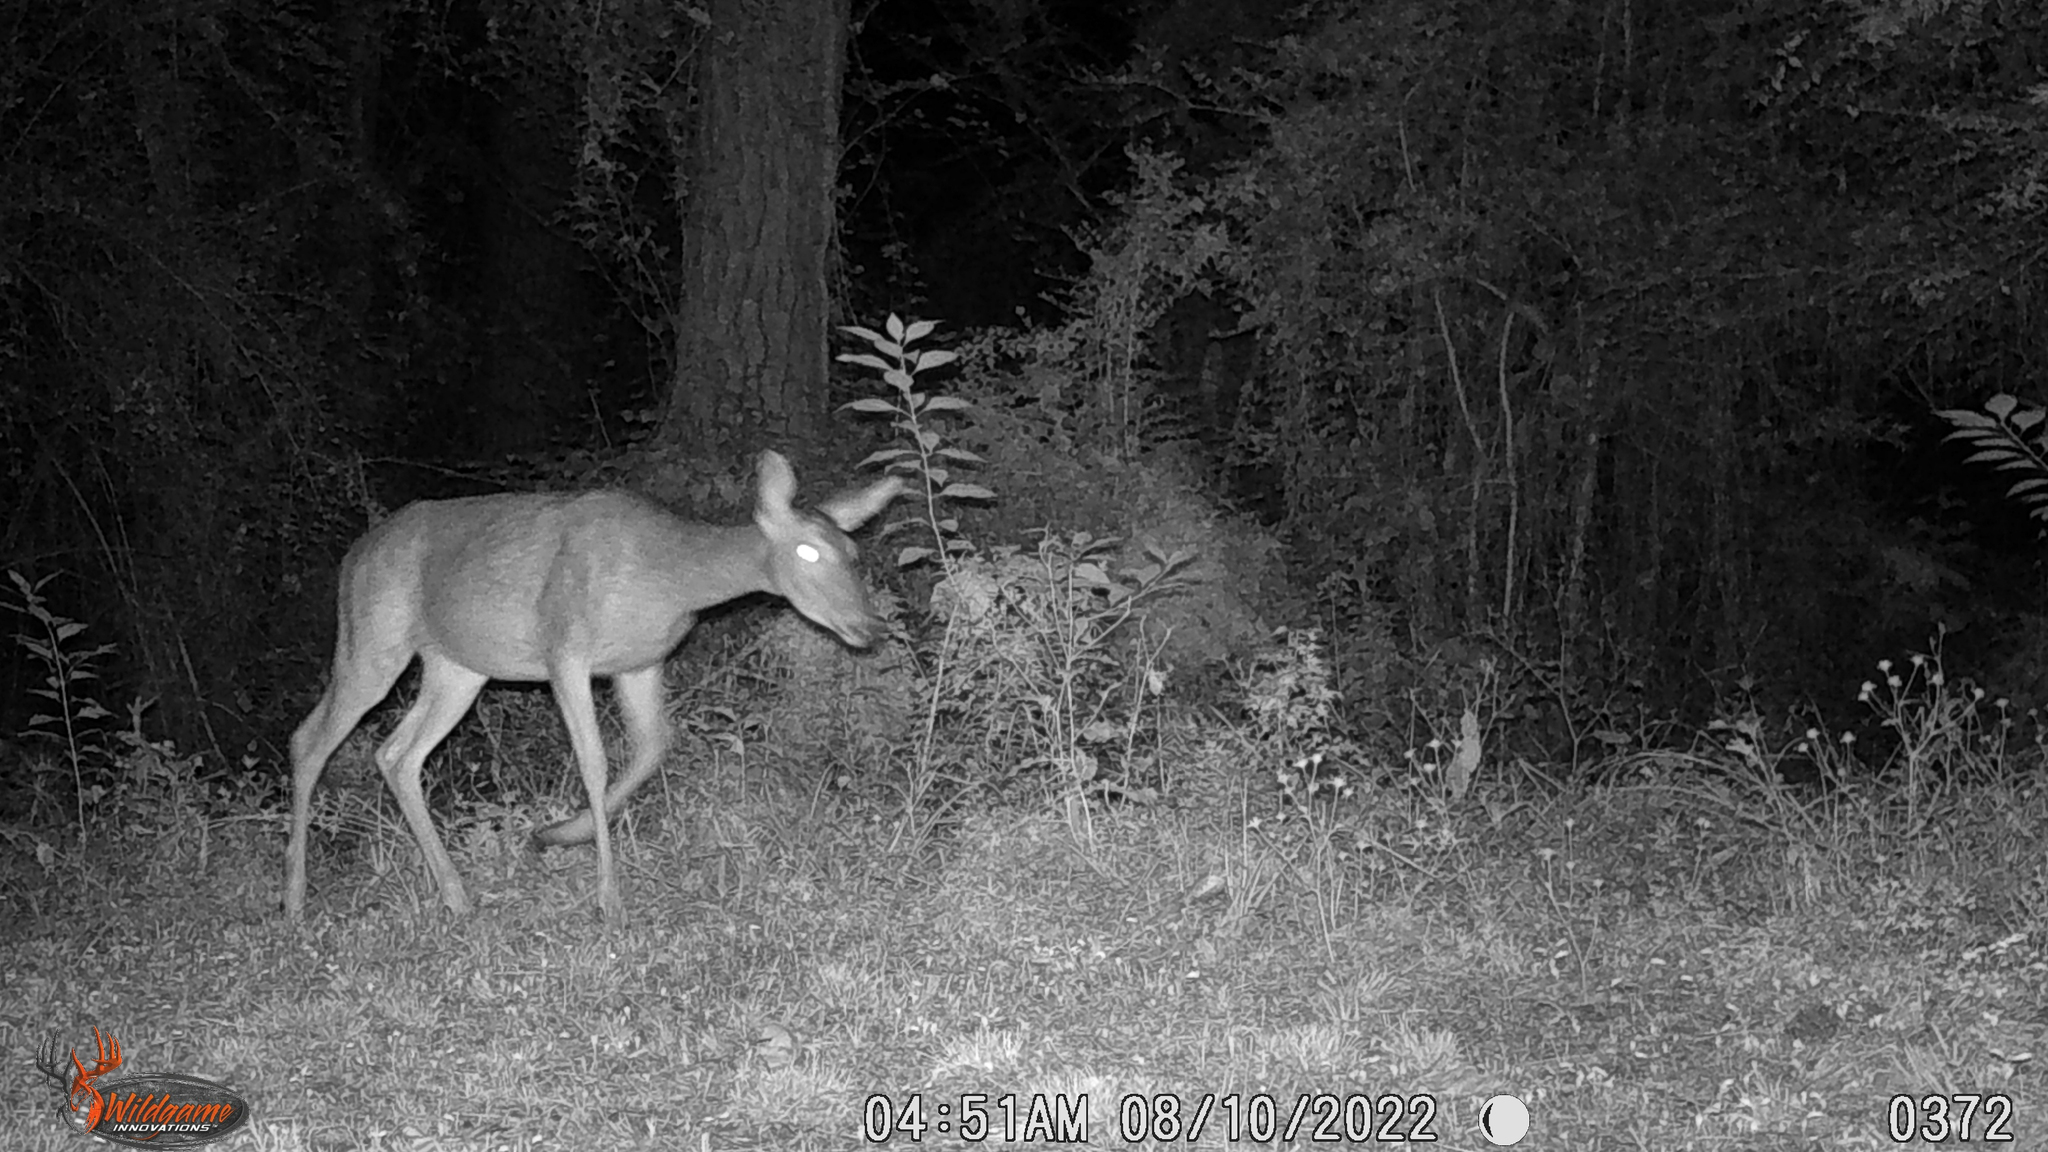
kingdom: Animalia
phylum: Chordata
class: Mammalia
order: Artiodactyla
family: Cervidae
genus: Odocoileus
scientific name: Odocoileus virginianus
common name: White-tailed deer
